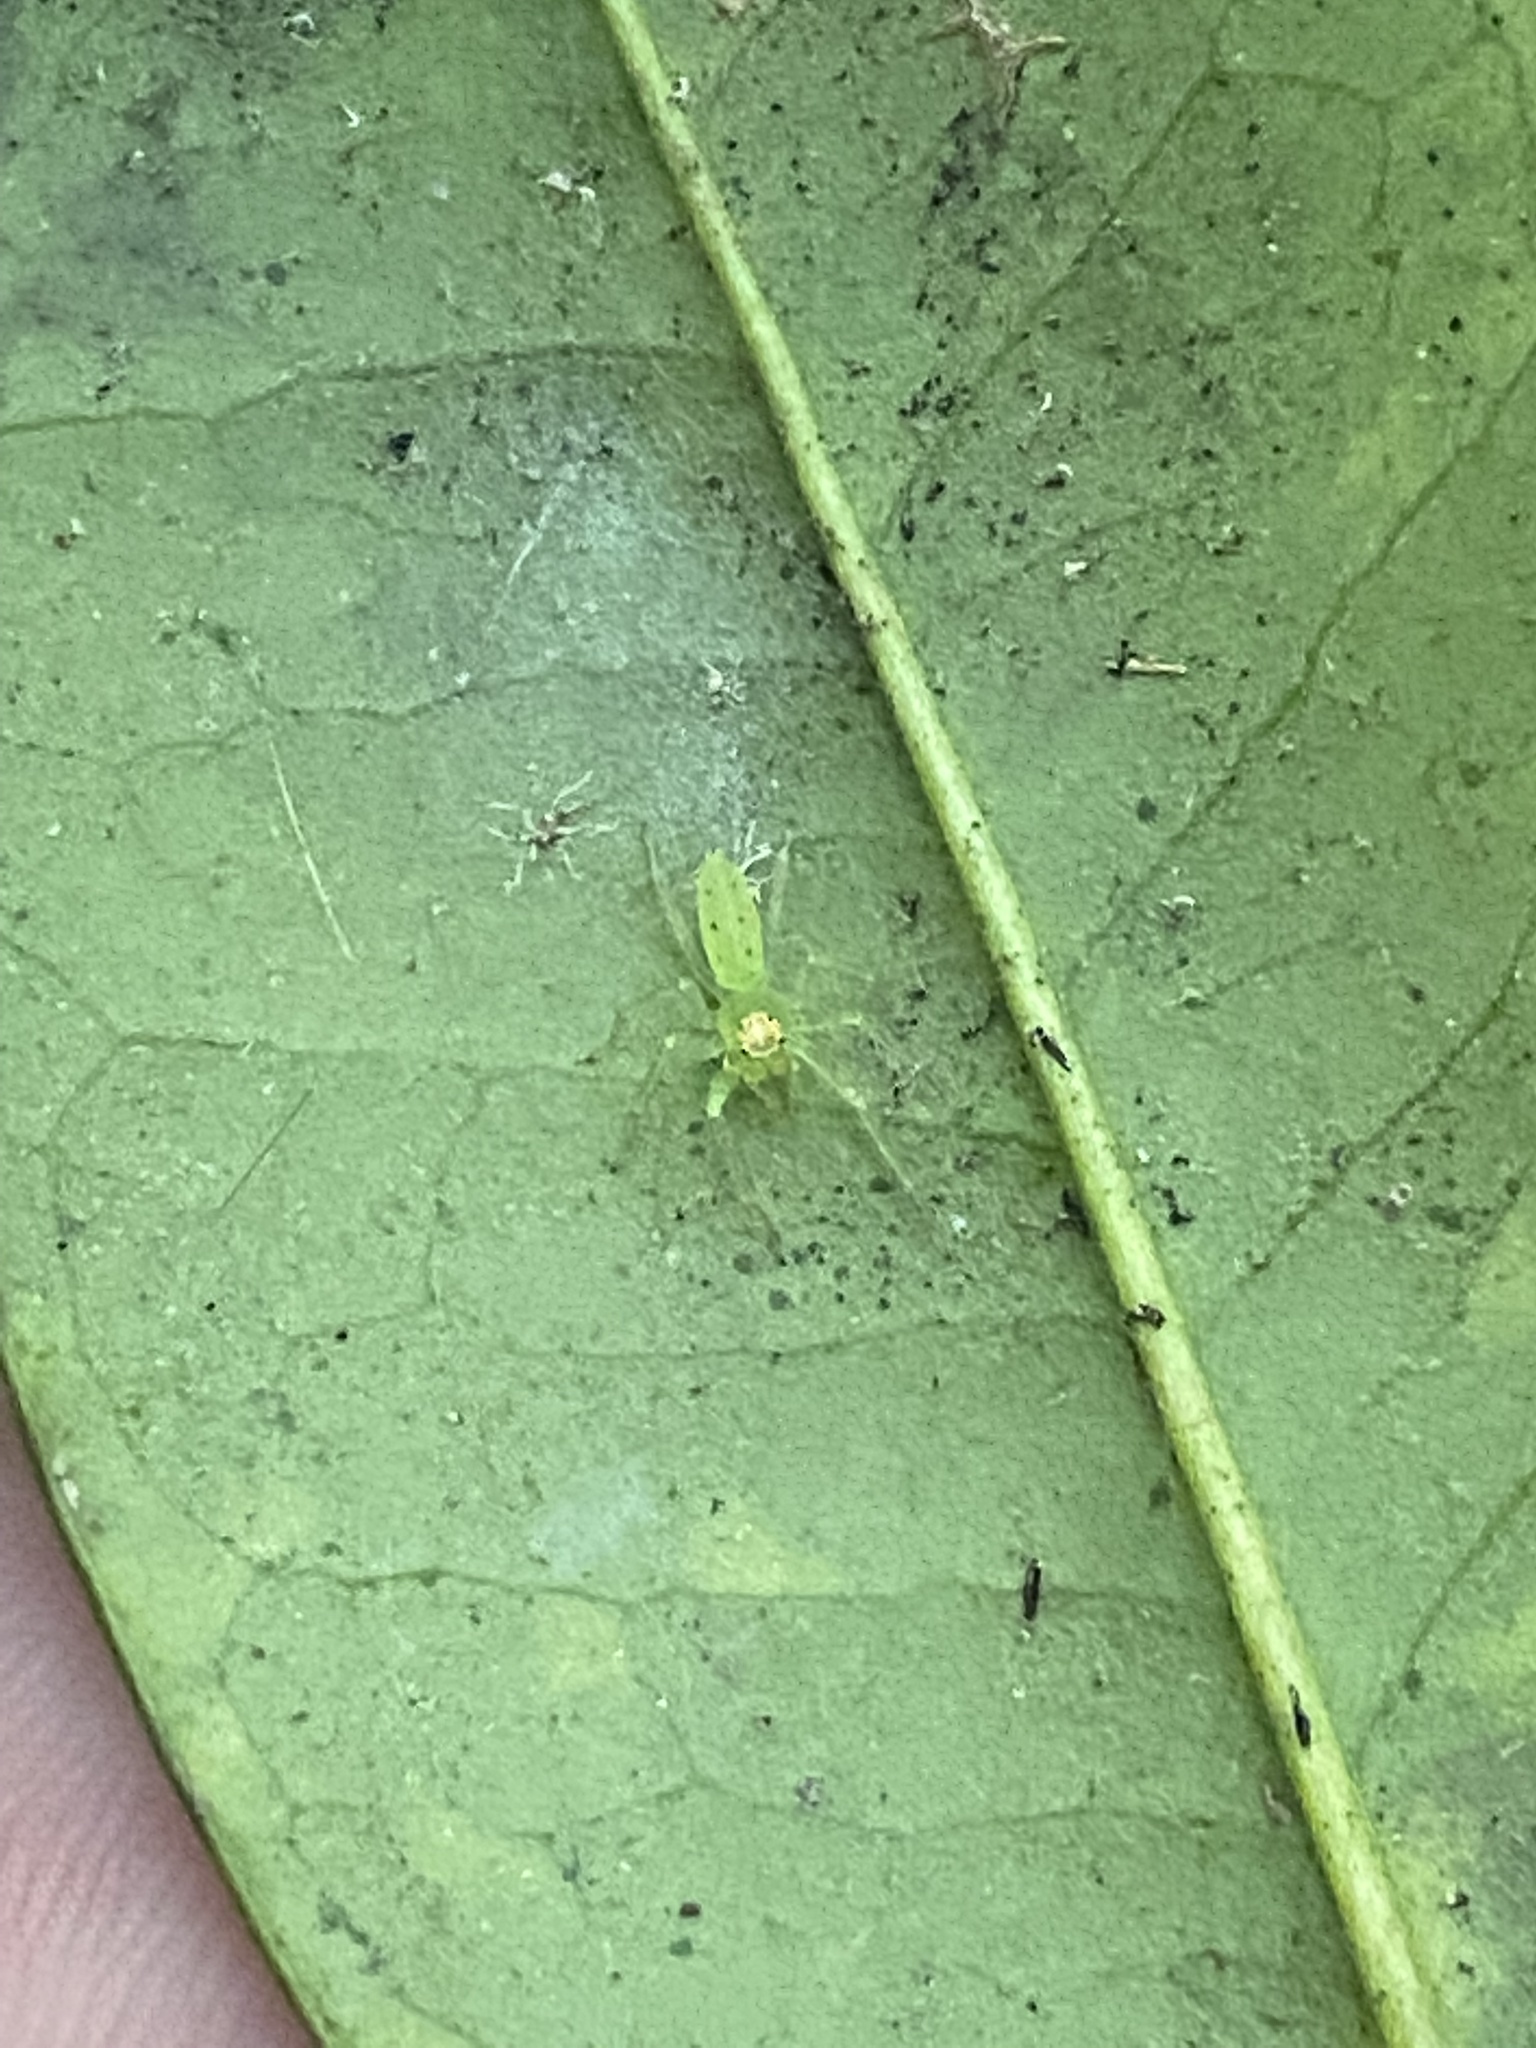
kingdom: Animalia
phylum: Arthropoda
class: Arachnida
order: Araneae
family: Salticidae
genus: Lyssomanes
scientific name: Lyssomanes viridis
